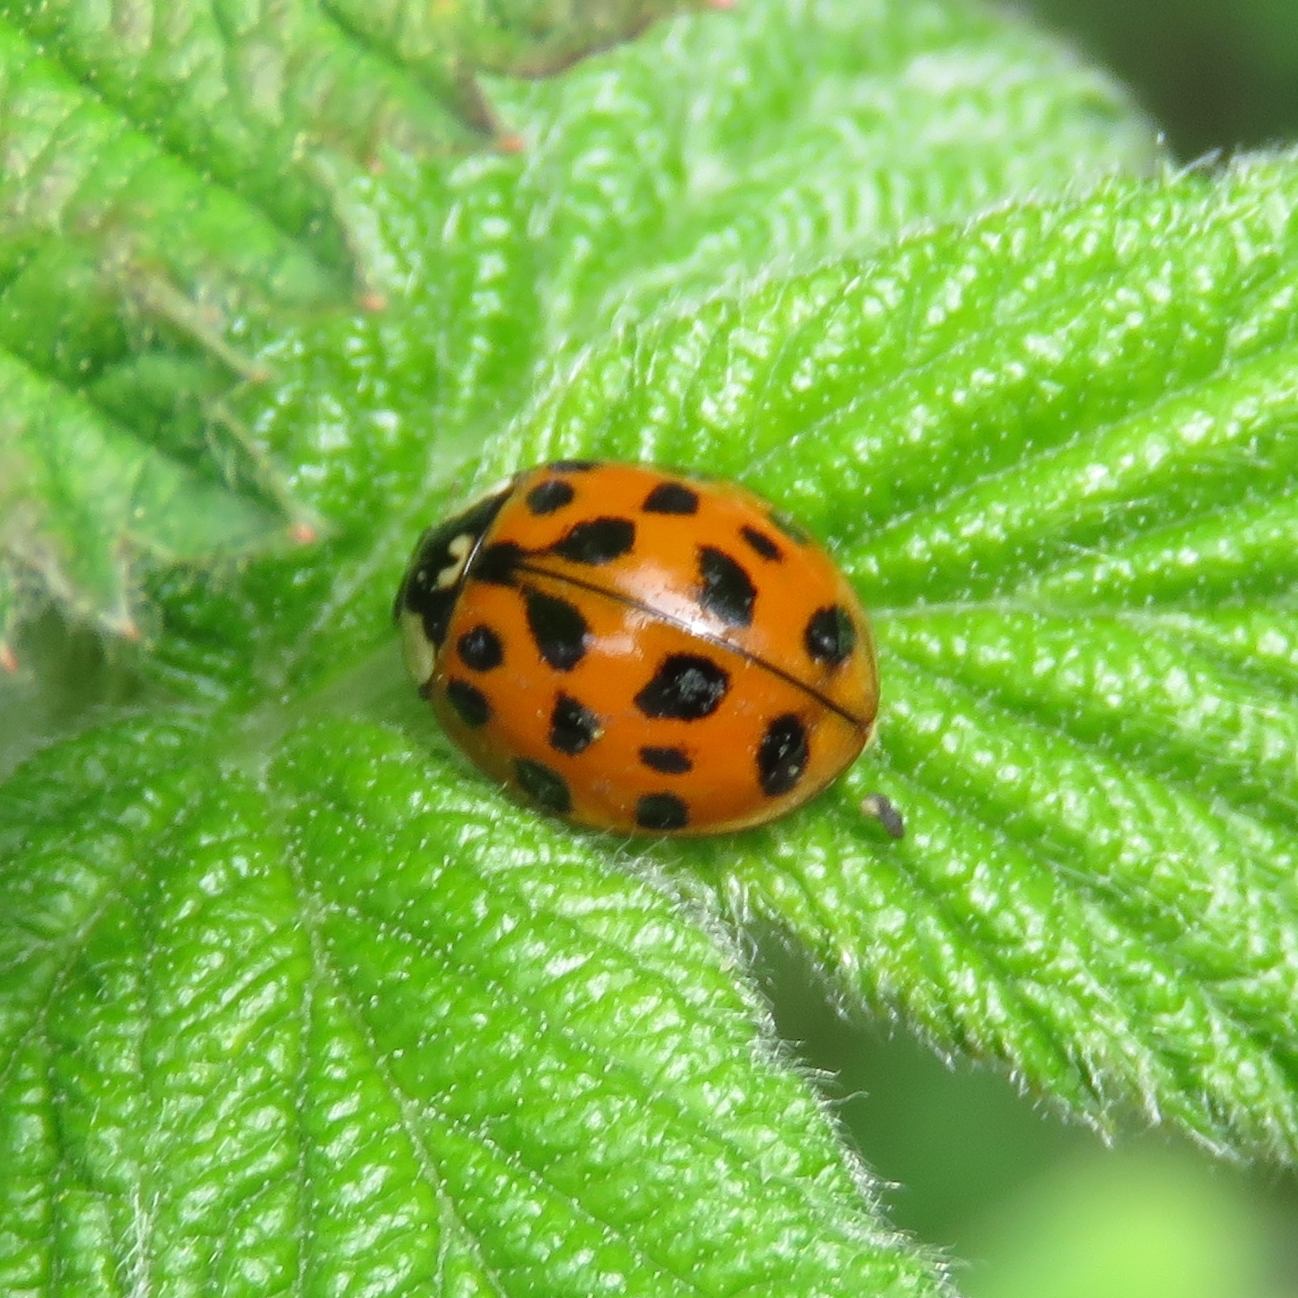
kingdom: Animalia
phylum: Arthropoda
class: Insecta
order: Coleoptera
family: Coccinellidae
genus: Harmonia
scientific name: Harmonia axyridis
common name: Harlequin ladybird
